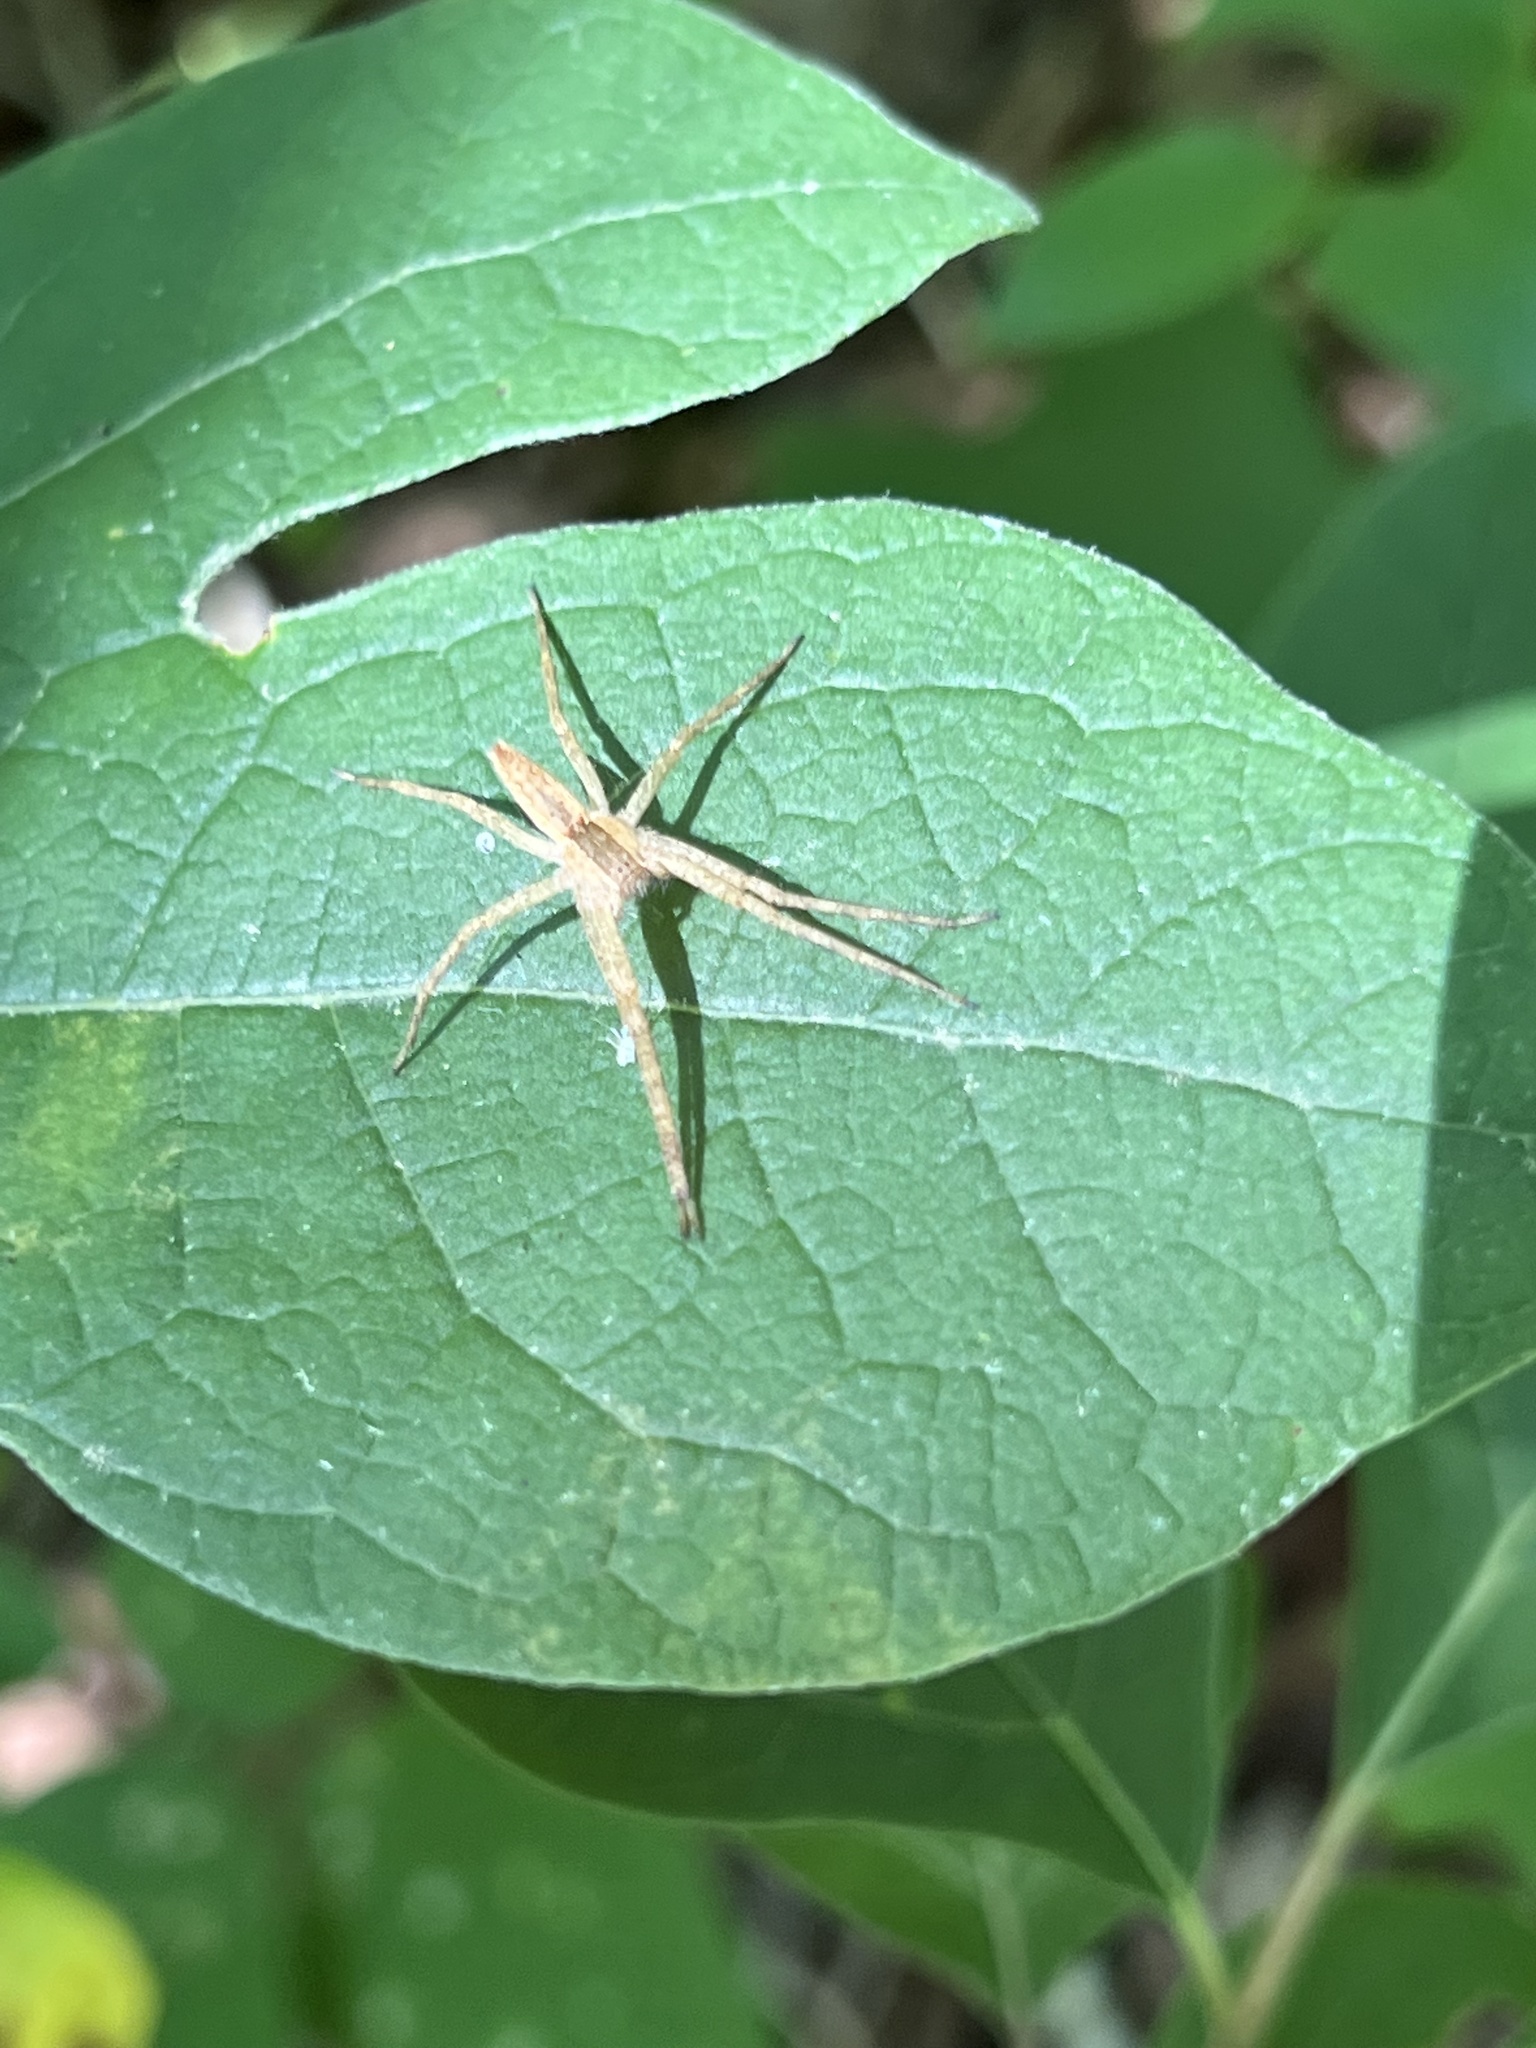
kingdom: Animalia
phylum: Arthropoda
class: Arachnida
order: Araneae
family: Pisauridae
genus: Pisaurina
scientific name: Pisaurina mira
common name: American nursery web spider
